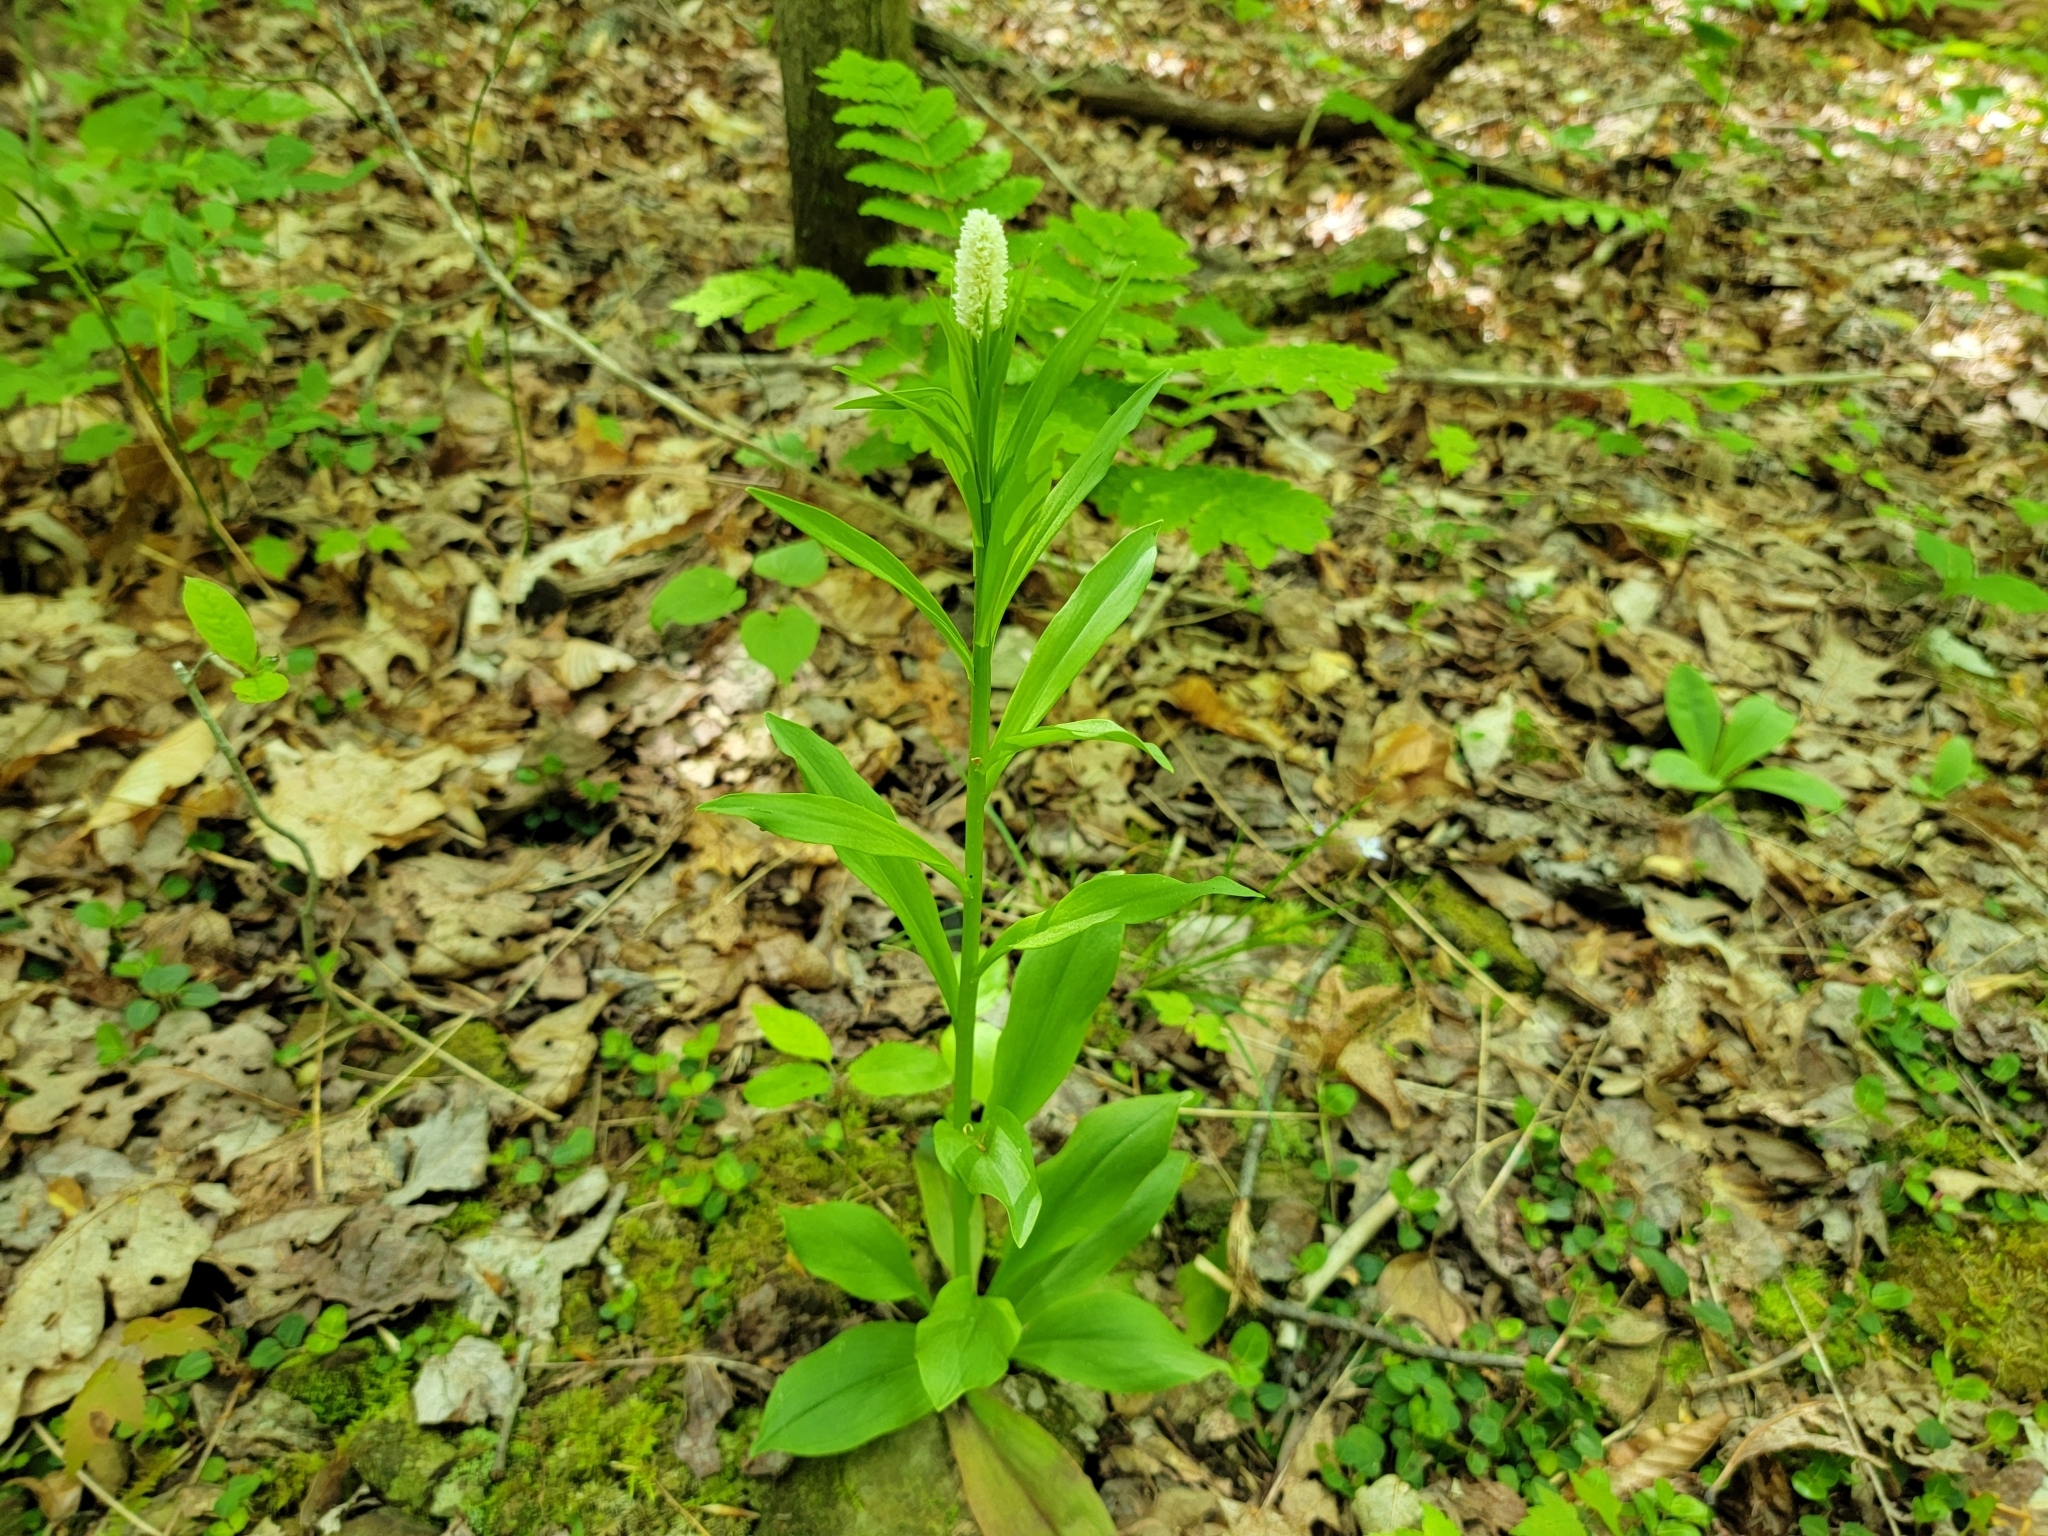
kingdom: Plantae
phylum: Tracheophyta
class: Liliopsida
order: Liliales
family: Melanthiaceae
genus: Chamaelirium
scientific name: Chamaelirium luteum
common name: Fairy-wand
